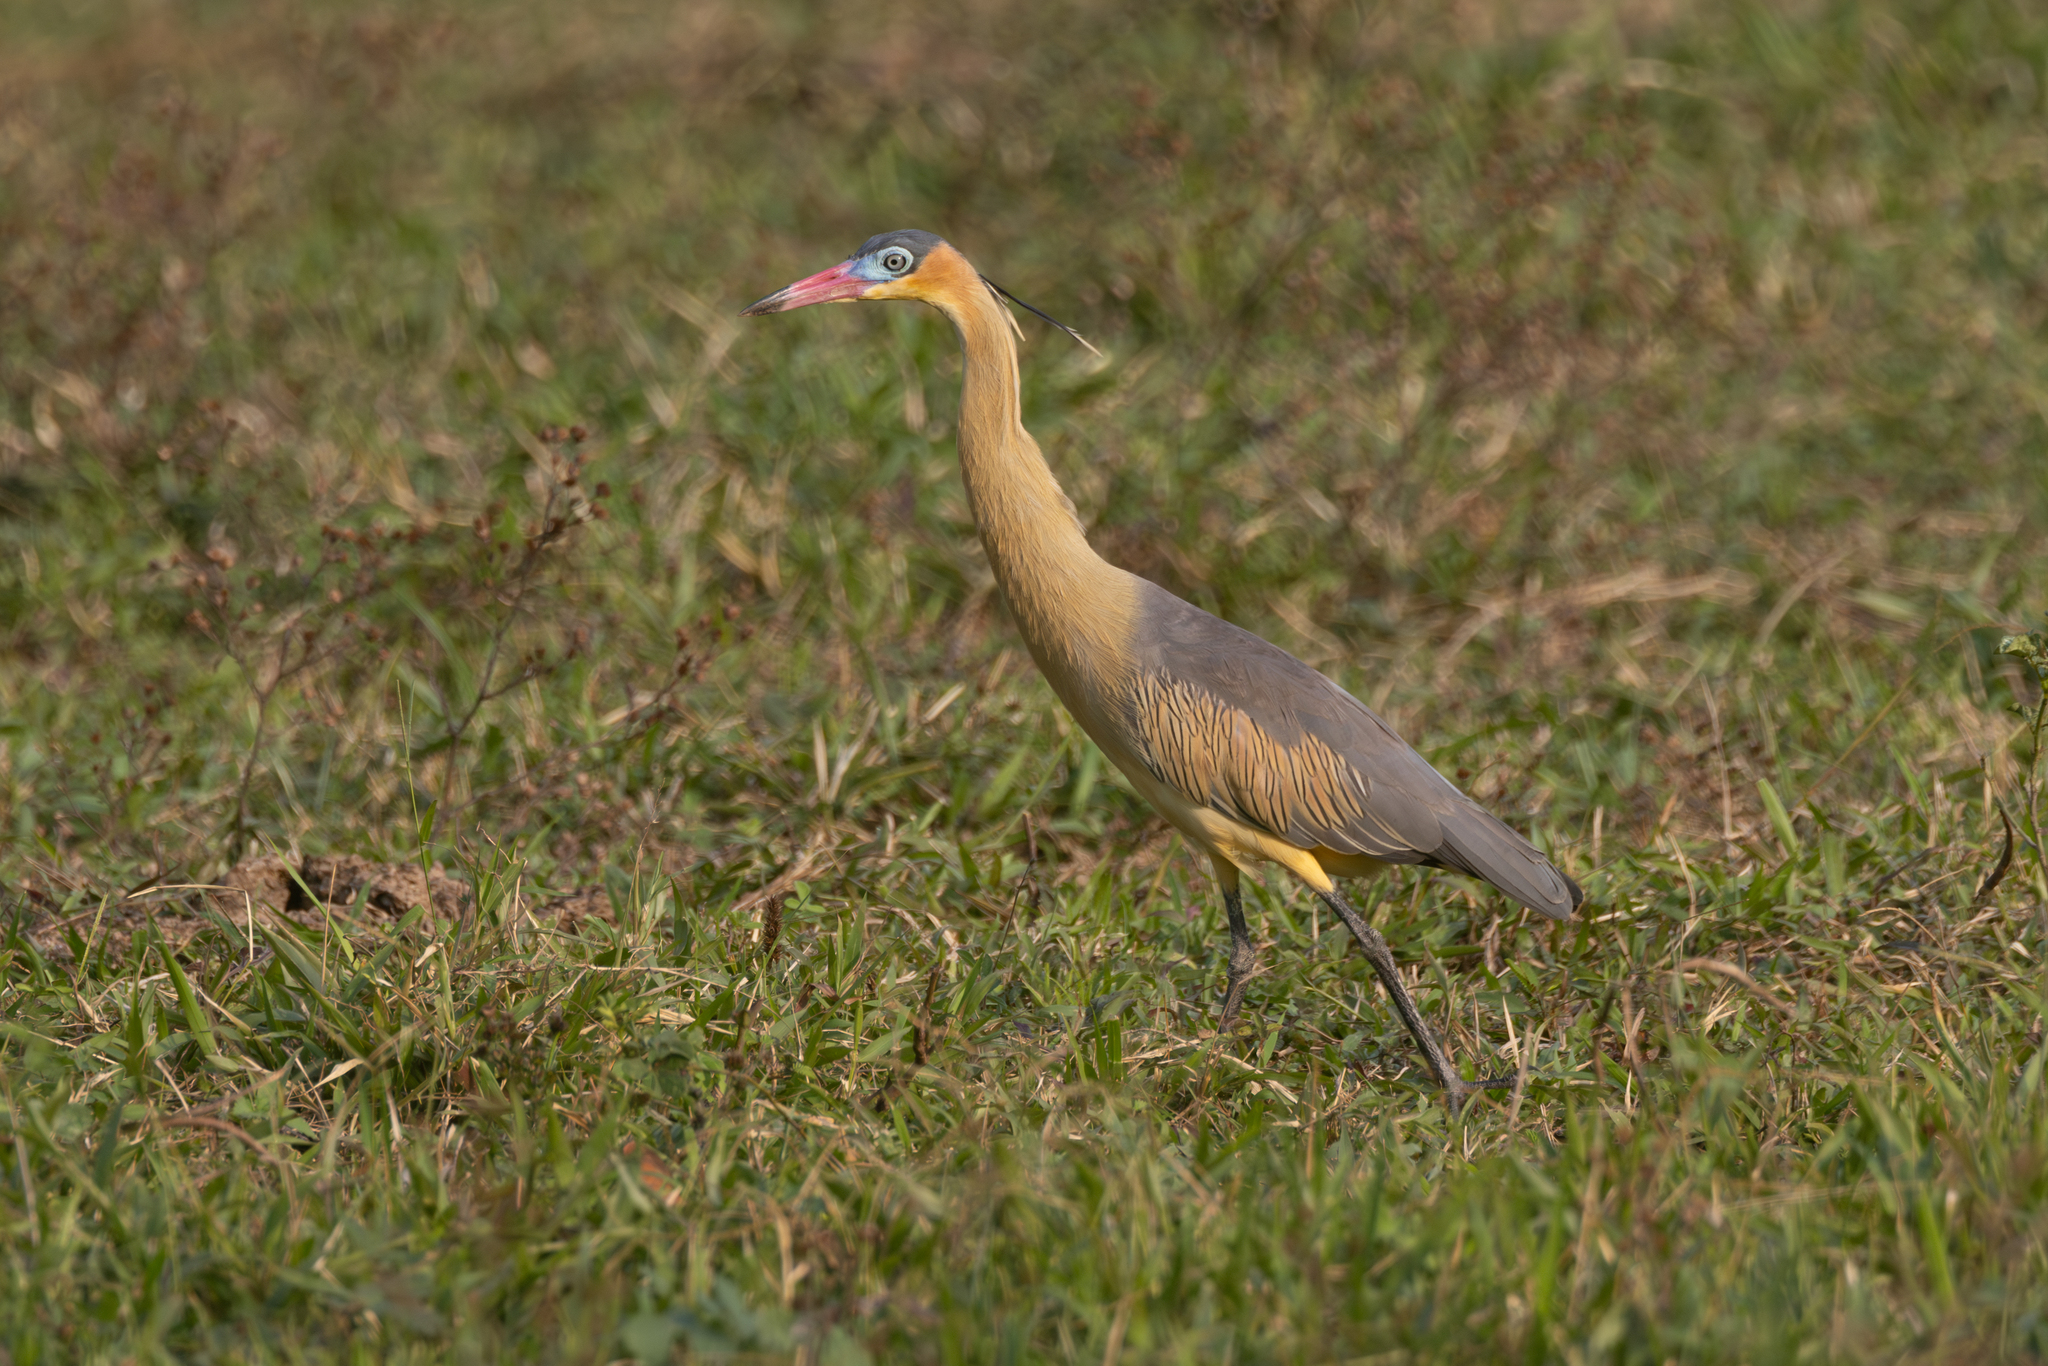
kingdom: Animalia
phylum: Chordata
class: Aves
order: Pelecaniformes
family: Ardeidae
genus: Syrigma
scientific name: Syrigma sibilatrix
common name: Whistling heron
